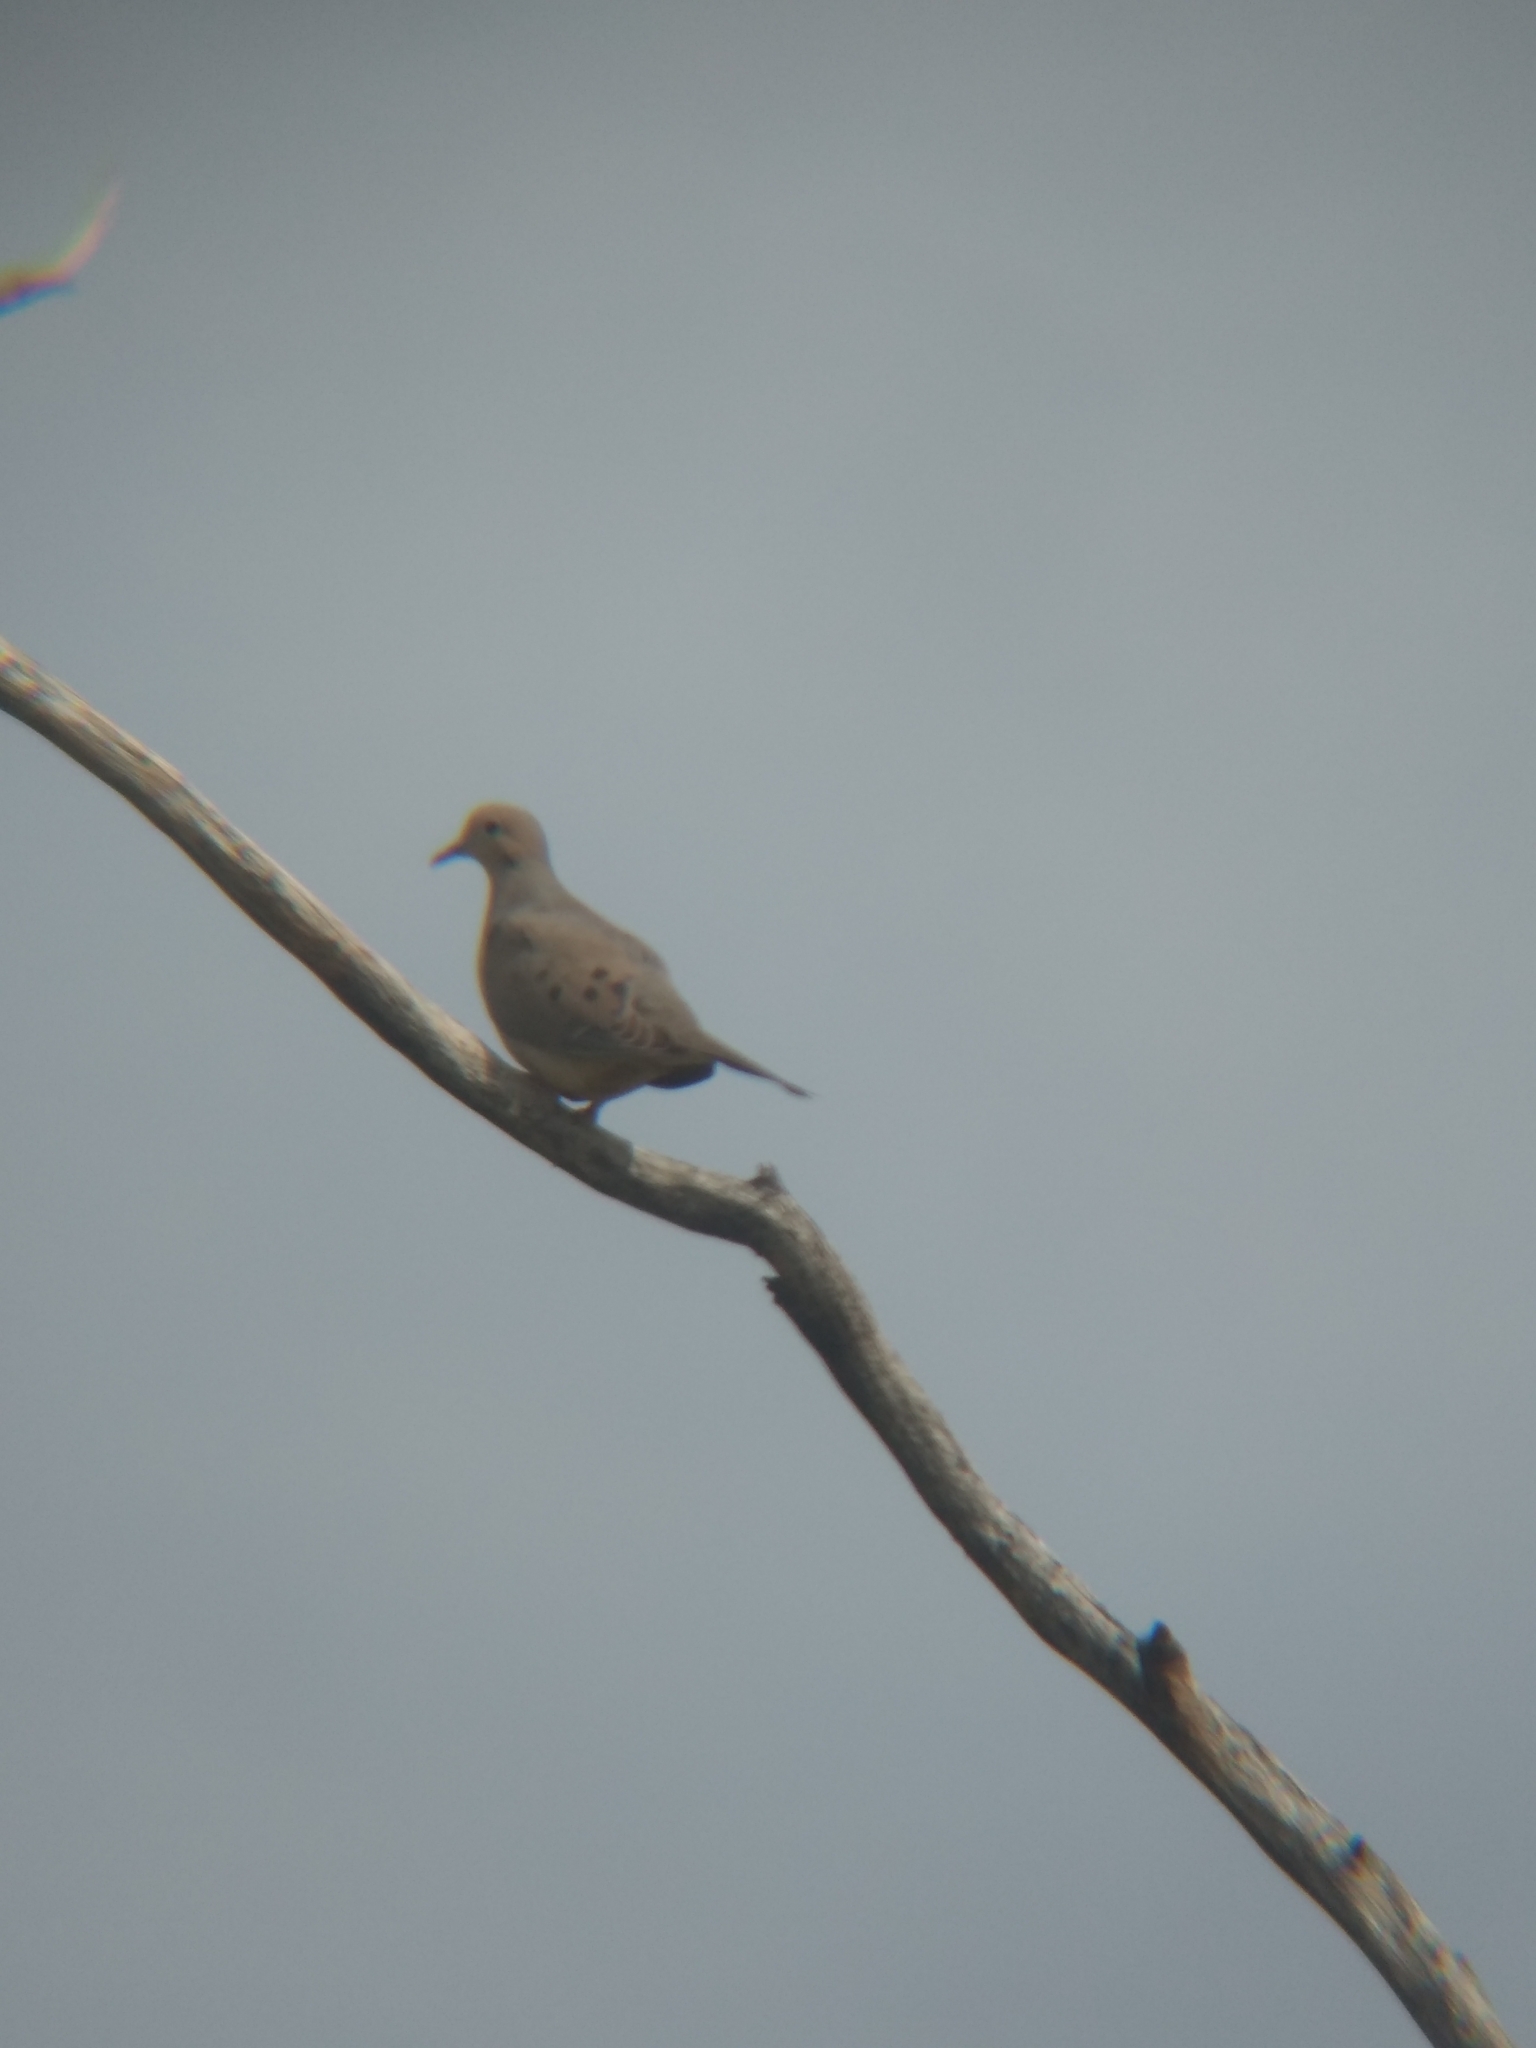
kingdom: Animalia
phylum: Chordata
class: Aves
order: Columbiformes
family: Columbidae
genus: Zenaida
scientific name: Zenaida macroura
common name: Mourning dove
